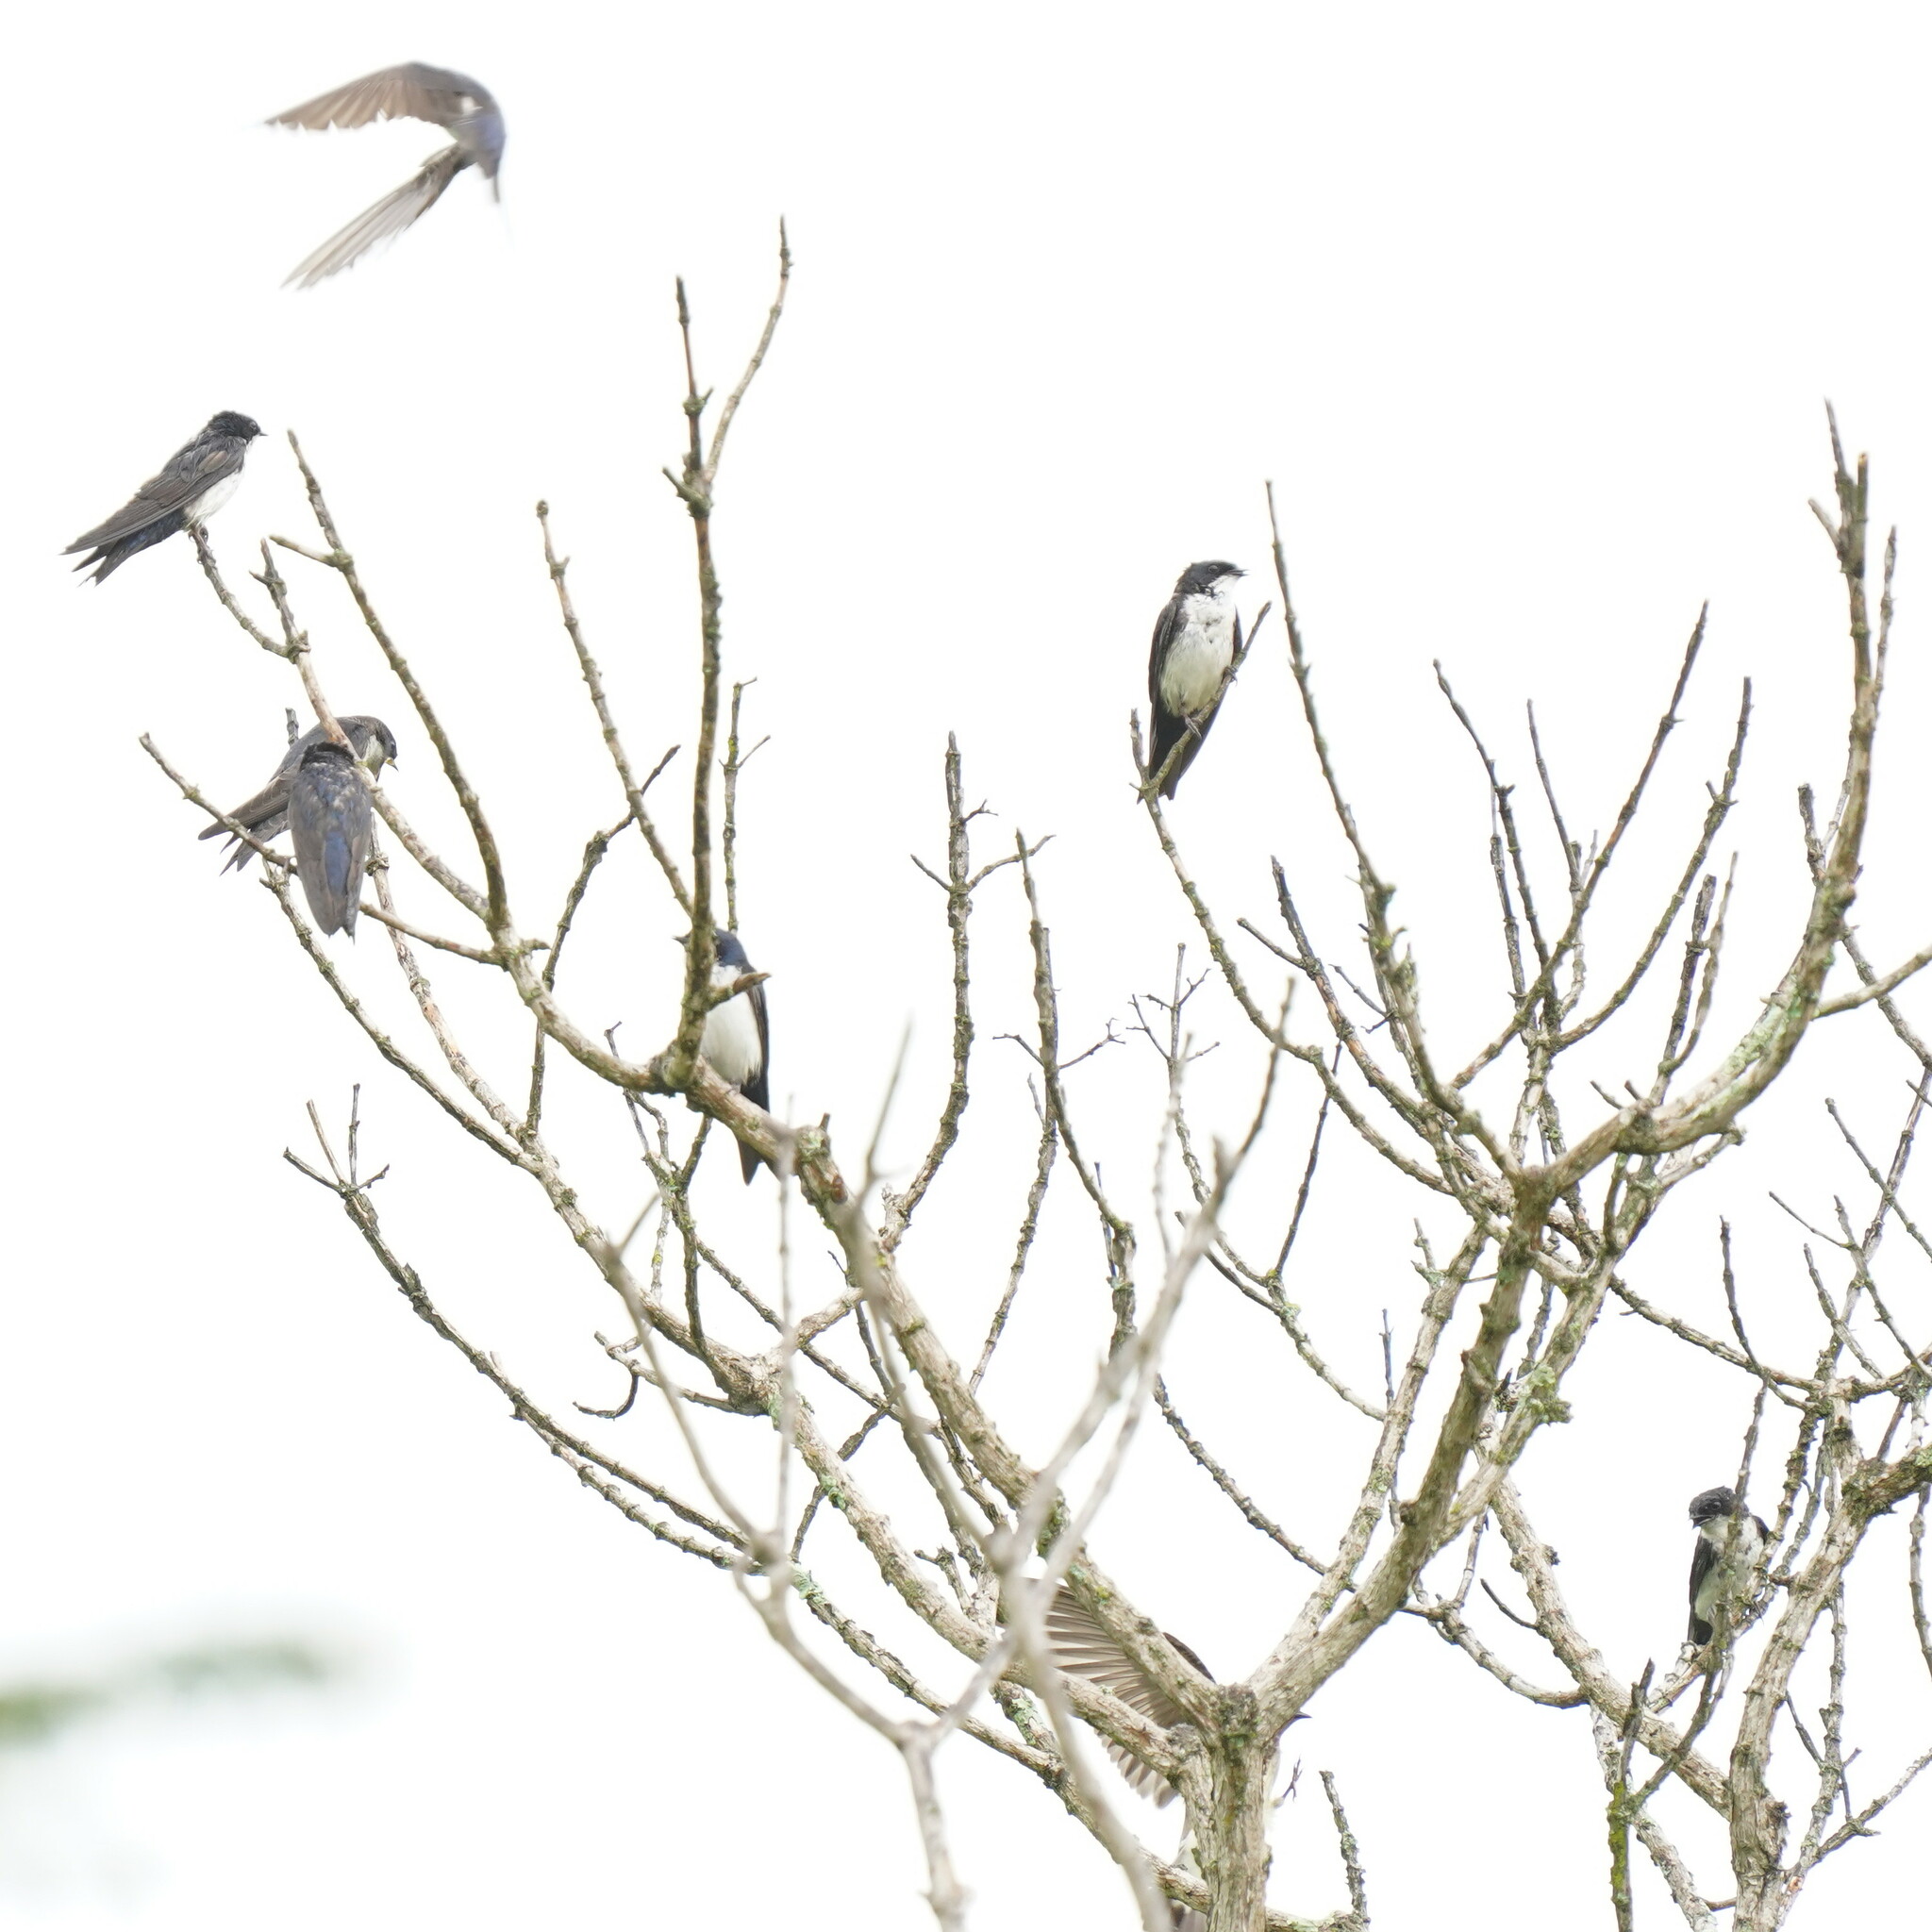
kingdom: Animalia
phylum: Chordata
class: Aves
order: Passeriformes
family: Hirundinidae
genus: Notiochelidon
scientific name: Notiochelidon cyanoleuca
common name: Blue-and-white swallow
